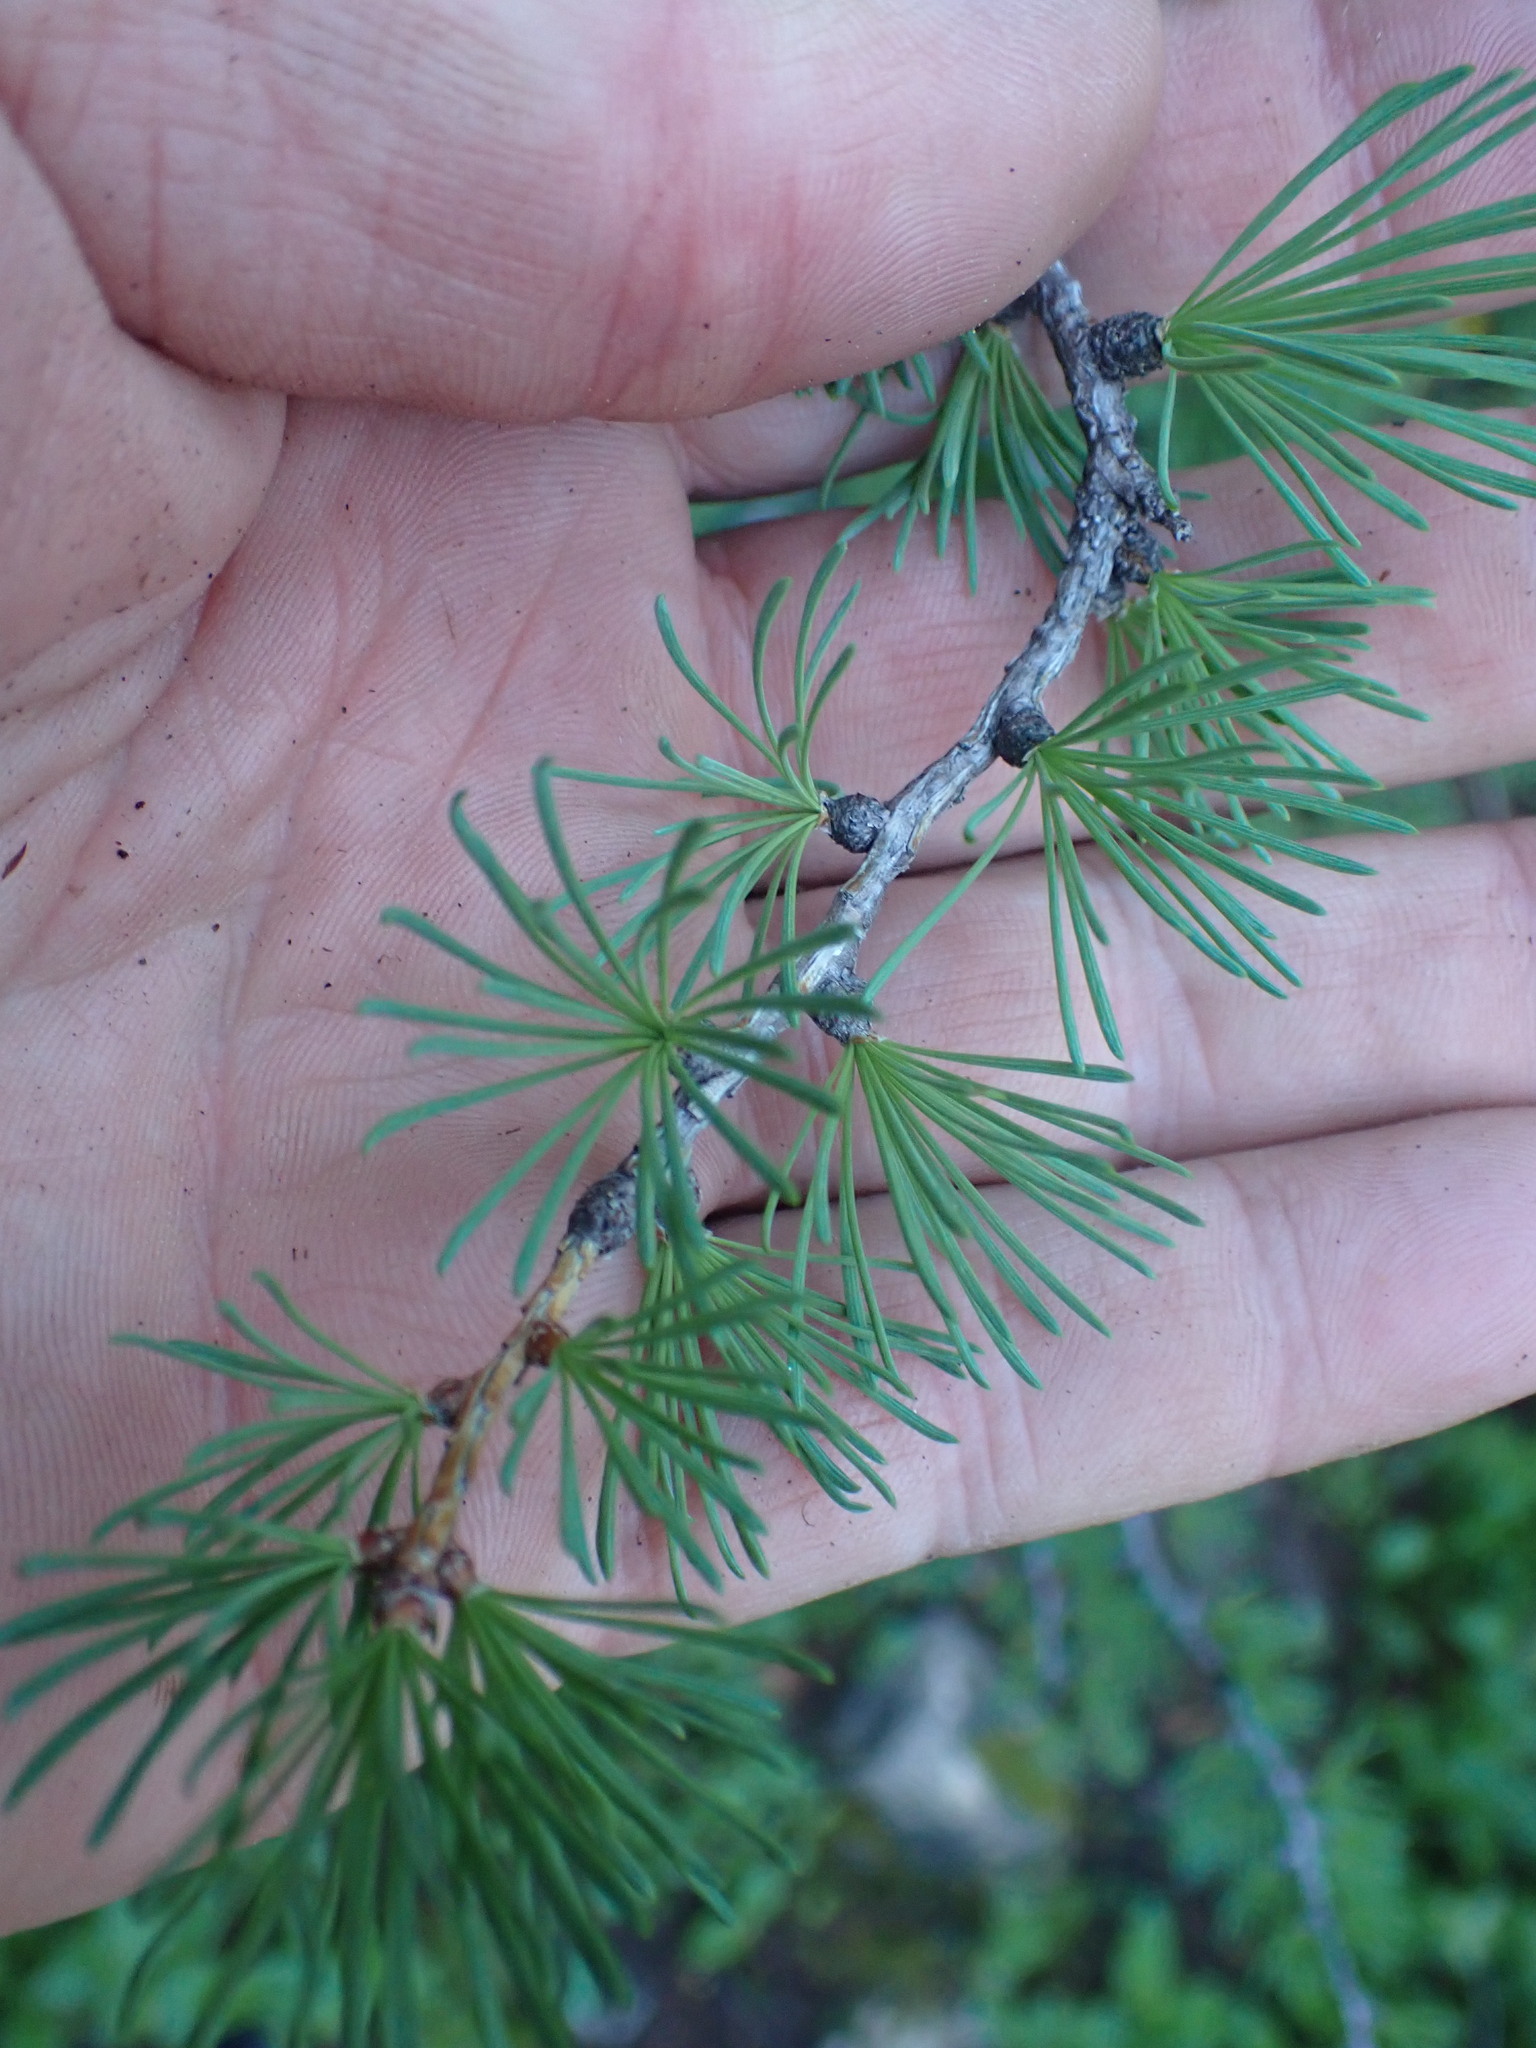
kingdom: Plantae
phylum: Tracheophyta
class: Pinopsida
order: Pinales
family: Pinaceae
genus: Larix
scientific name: Larix lyallii
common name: Alpine larch
